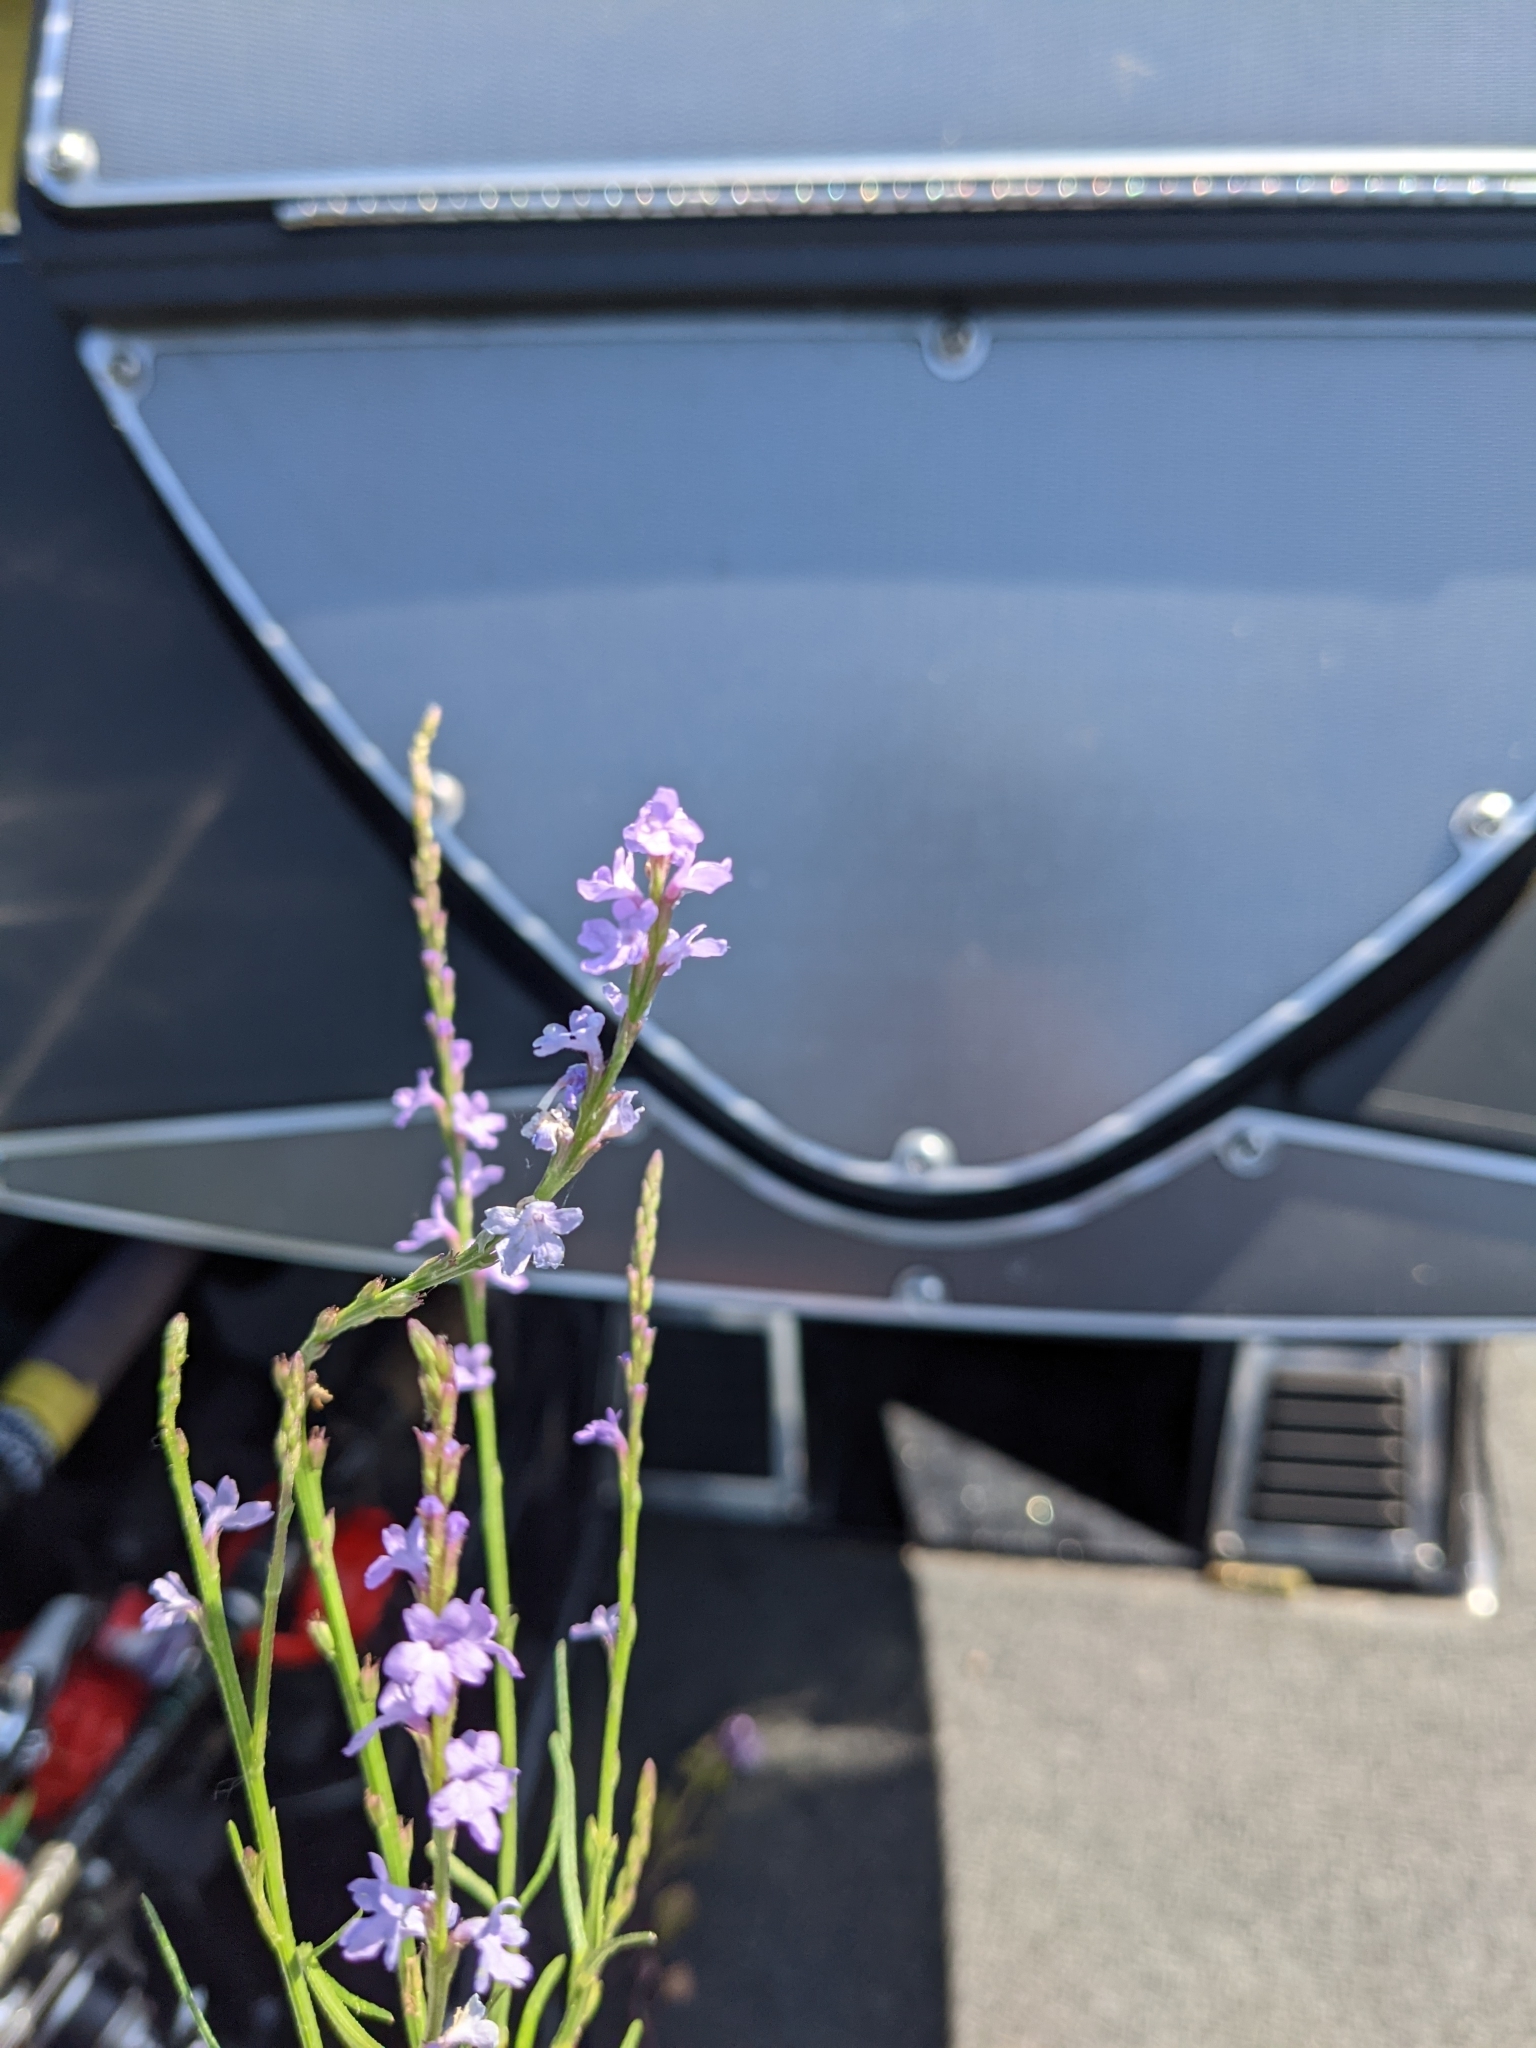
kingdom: Plantae
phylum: Tracheophyta
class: Magnoliopsida
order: Lamiales
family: Verbenaceae
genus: Verbena
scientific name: Verbena halei
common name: Texas vervain
